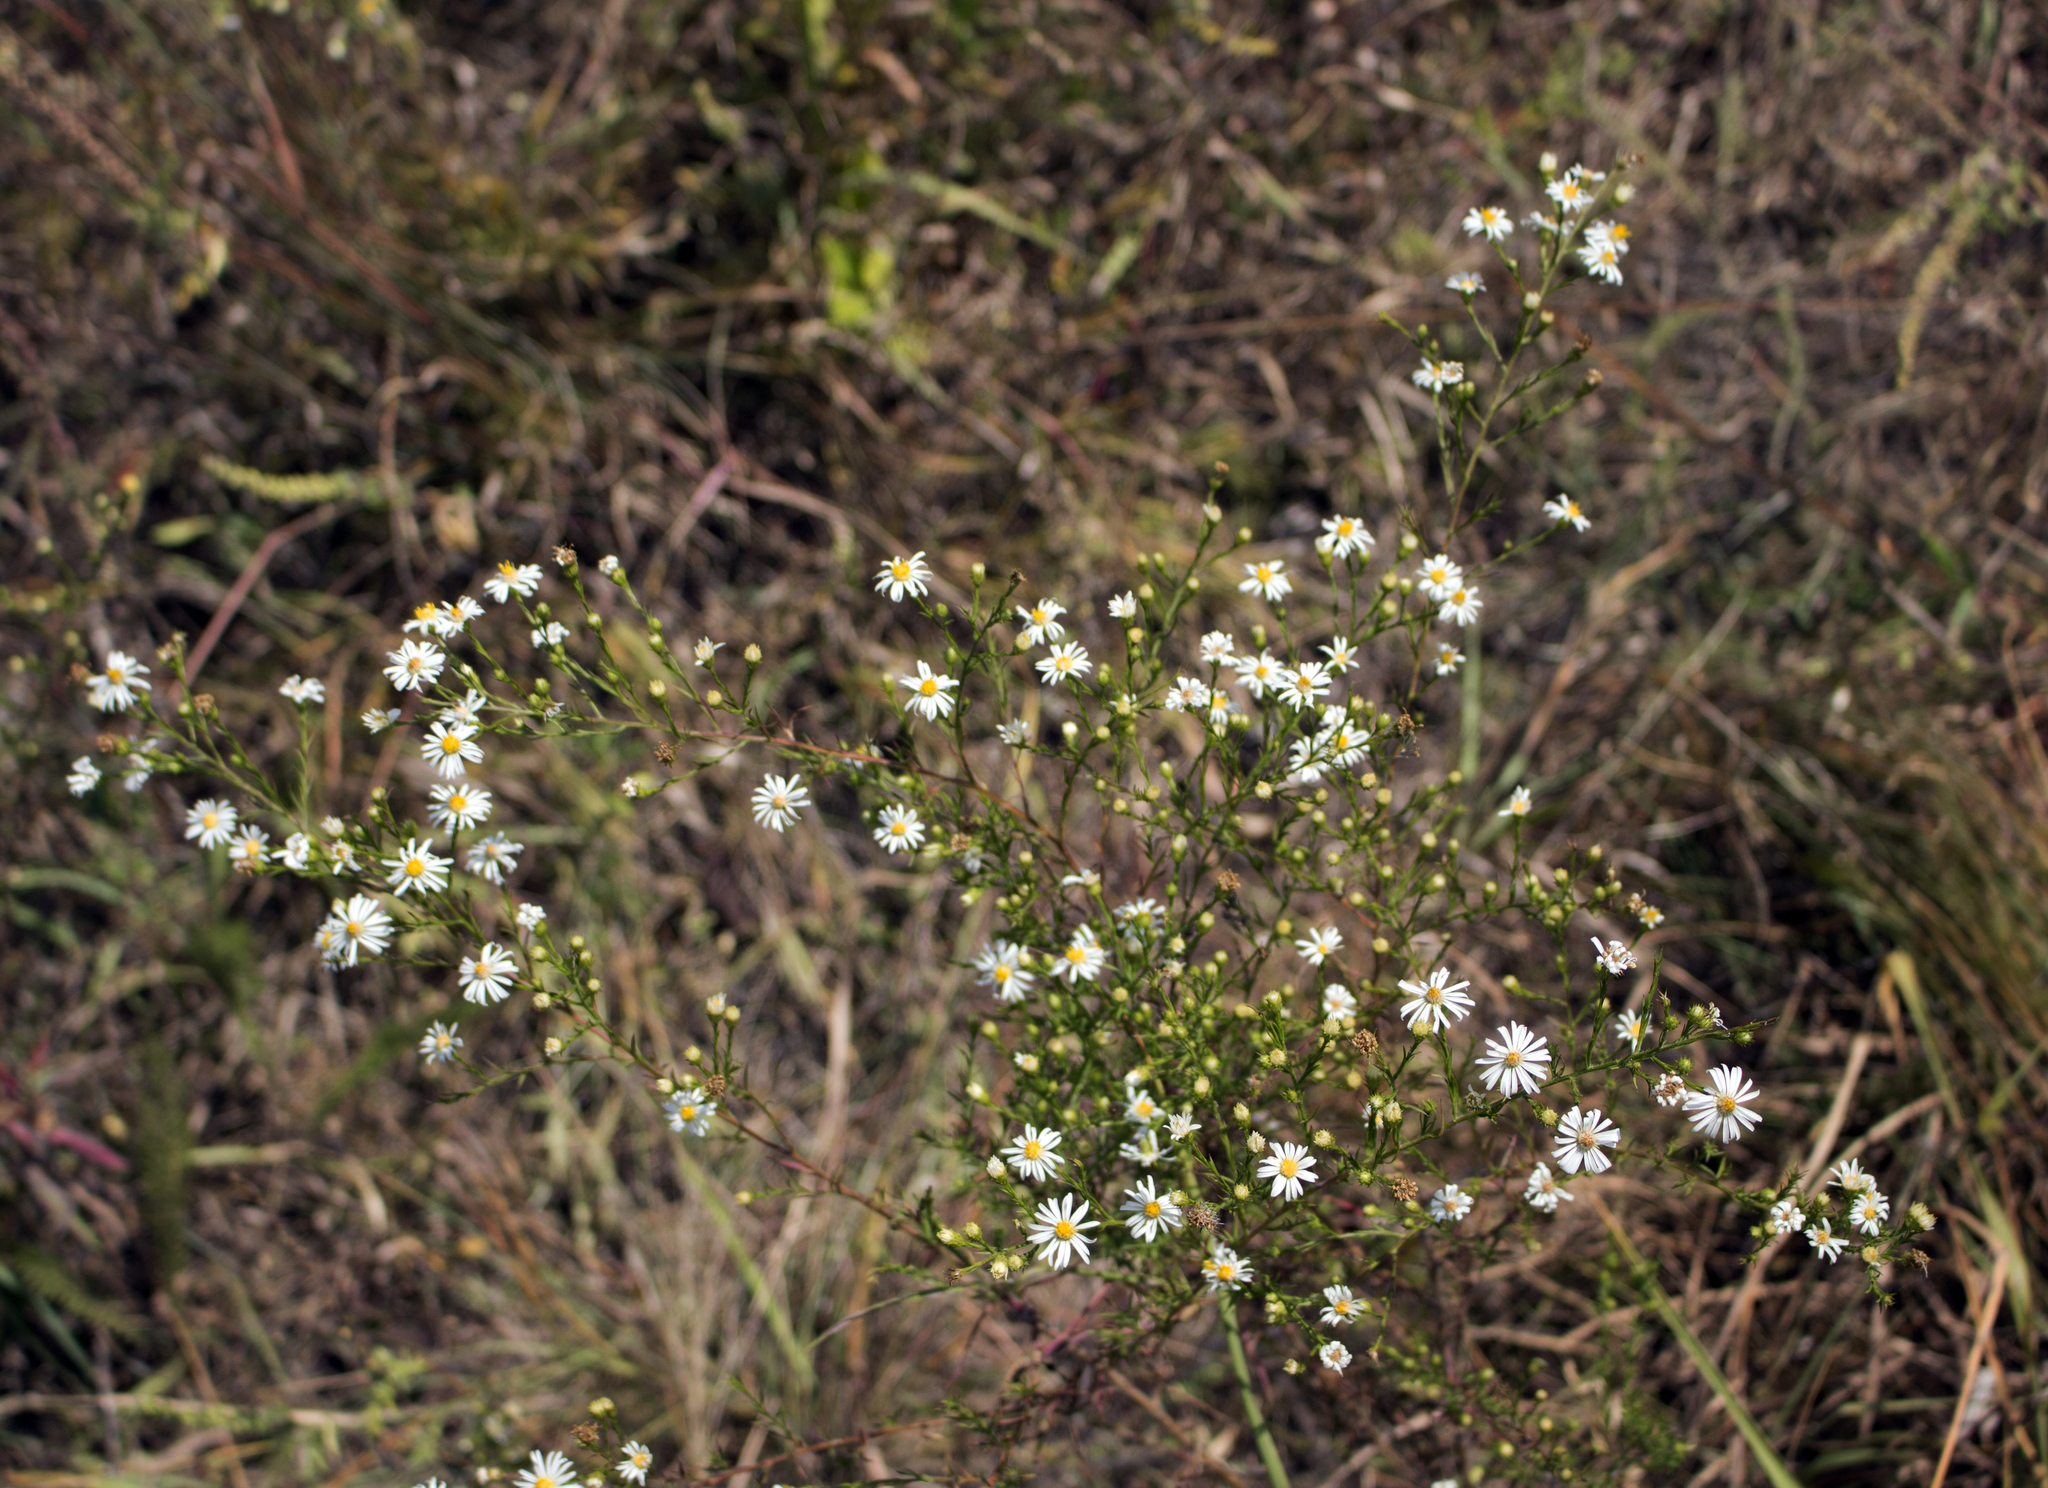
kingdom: Plantae
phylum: Tracheophyta
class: Magnoliopsida
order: Asterales
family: Asteraceae
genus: Symphyotrichum
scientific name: Symphyotrichum ericoides
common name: Heath aster
